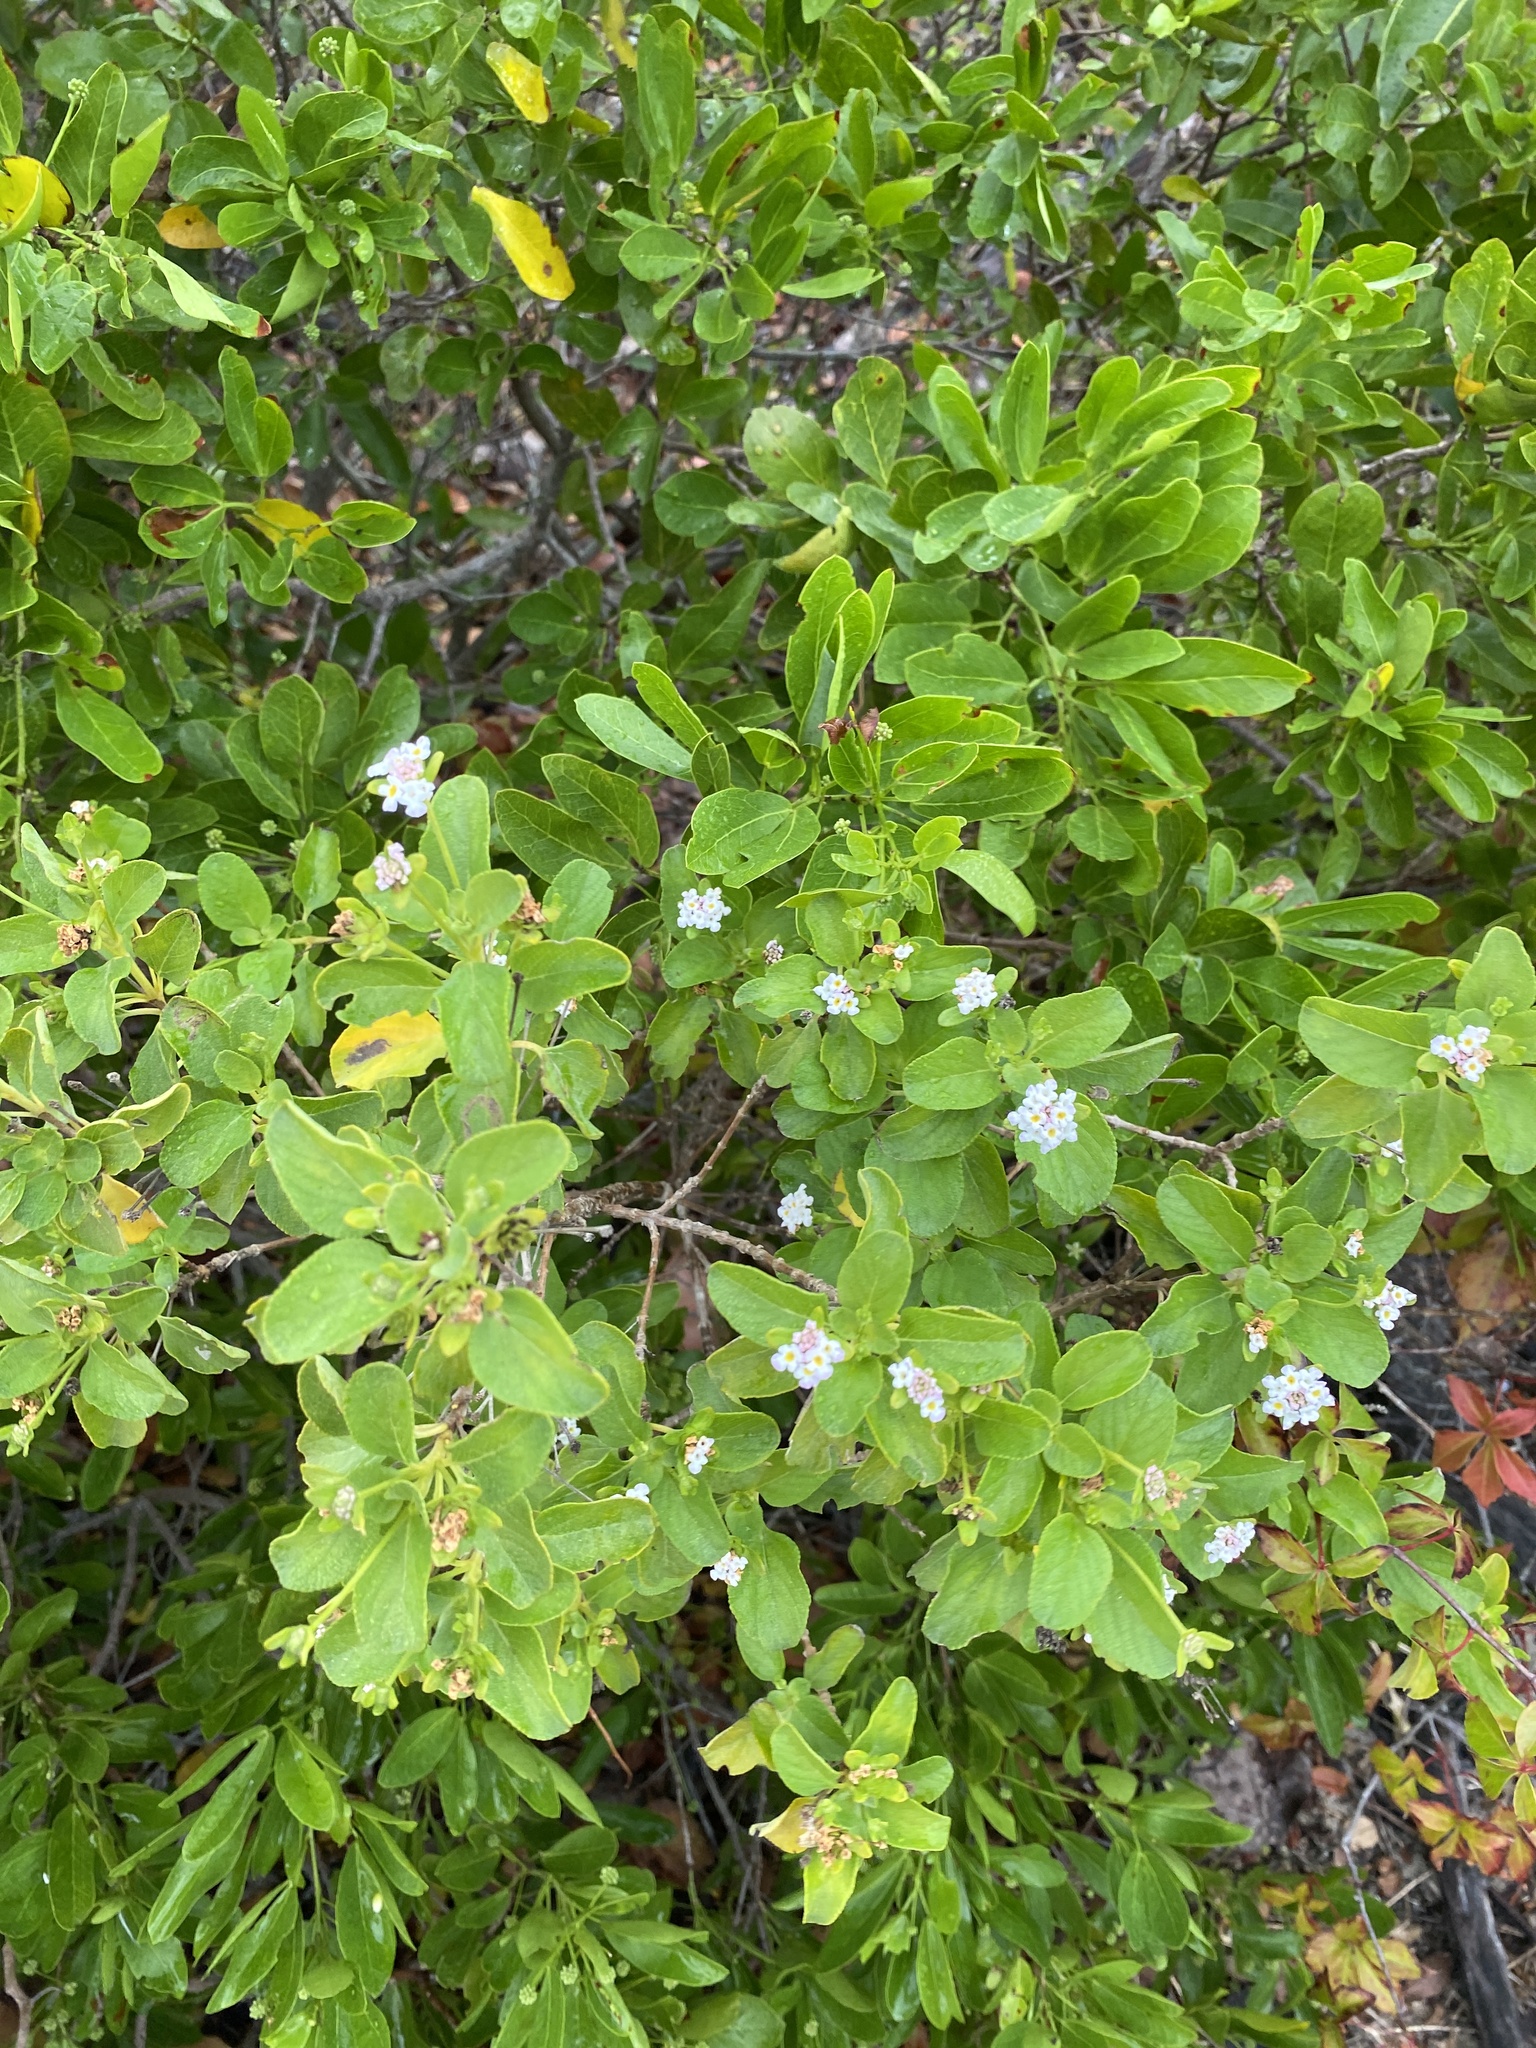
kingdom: Plantae
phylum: Tracheophyta
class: Magnoliopsida
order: Lamiales
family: Verbenaceae
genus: Lantana
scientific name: Lantana involucrata
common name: Black sage
